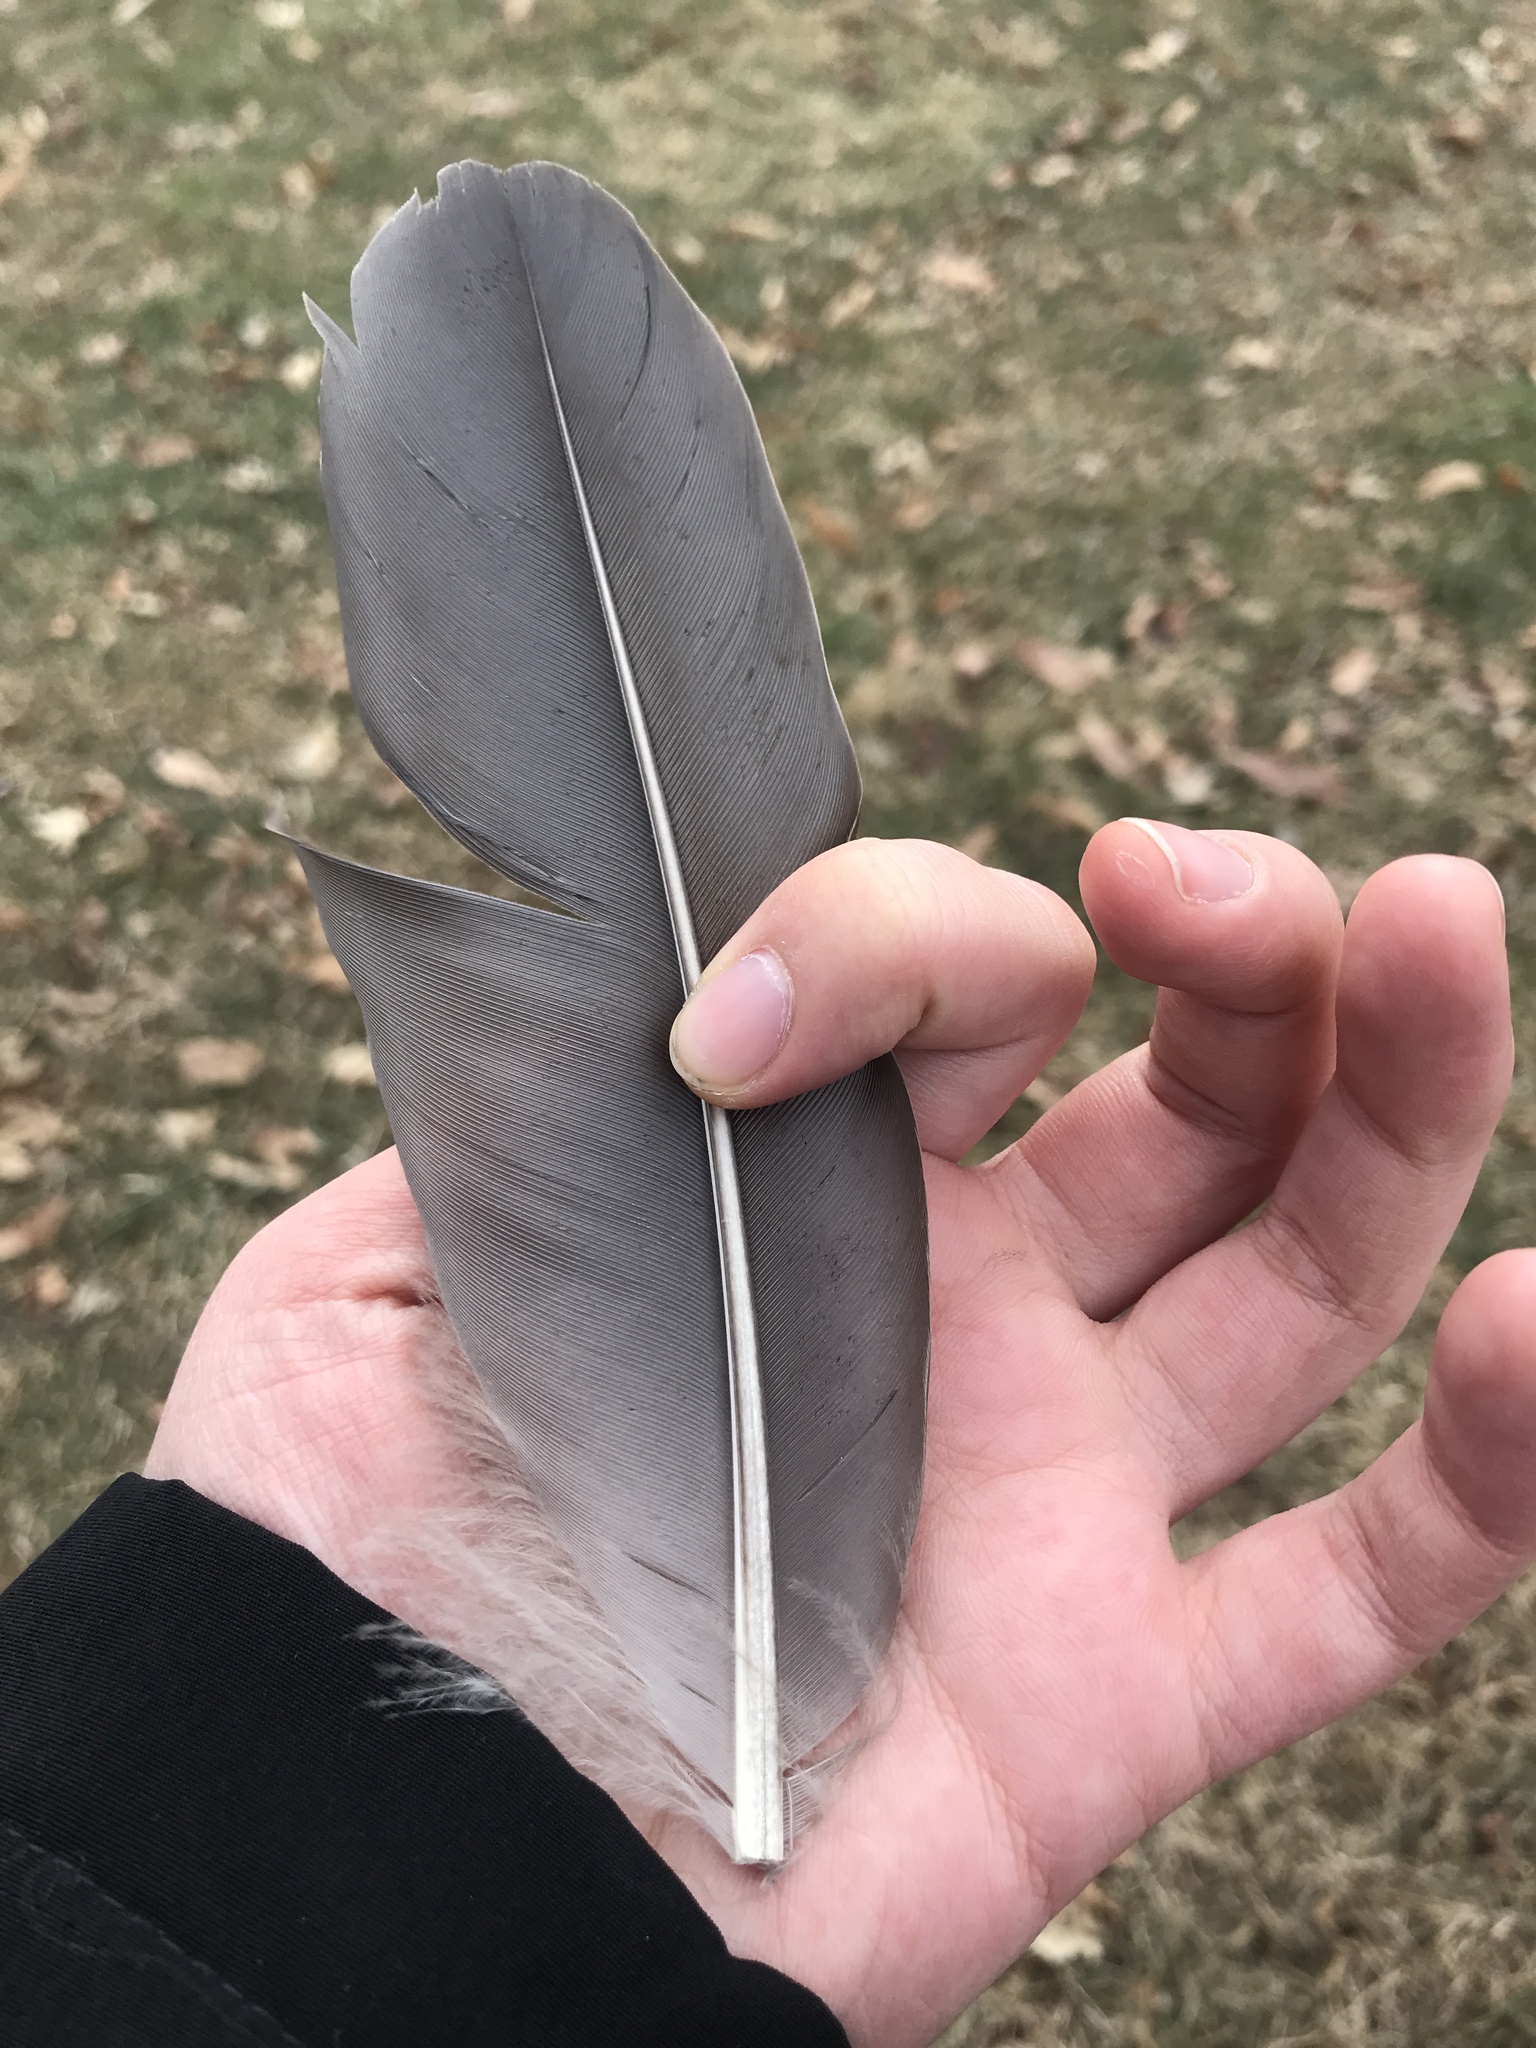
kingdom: Animalia
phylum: Chordata
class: Aves
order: Anseriformes
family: Anatidae
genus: Branta
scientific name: Branta canadensis
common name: Canada goose
